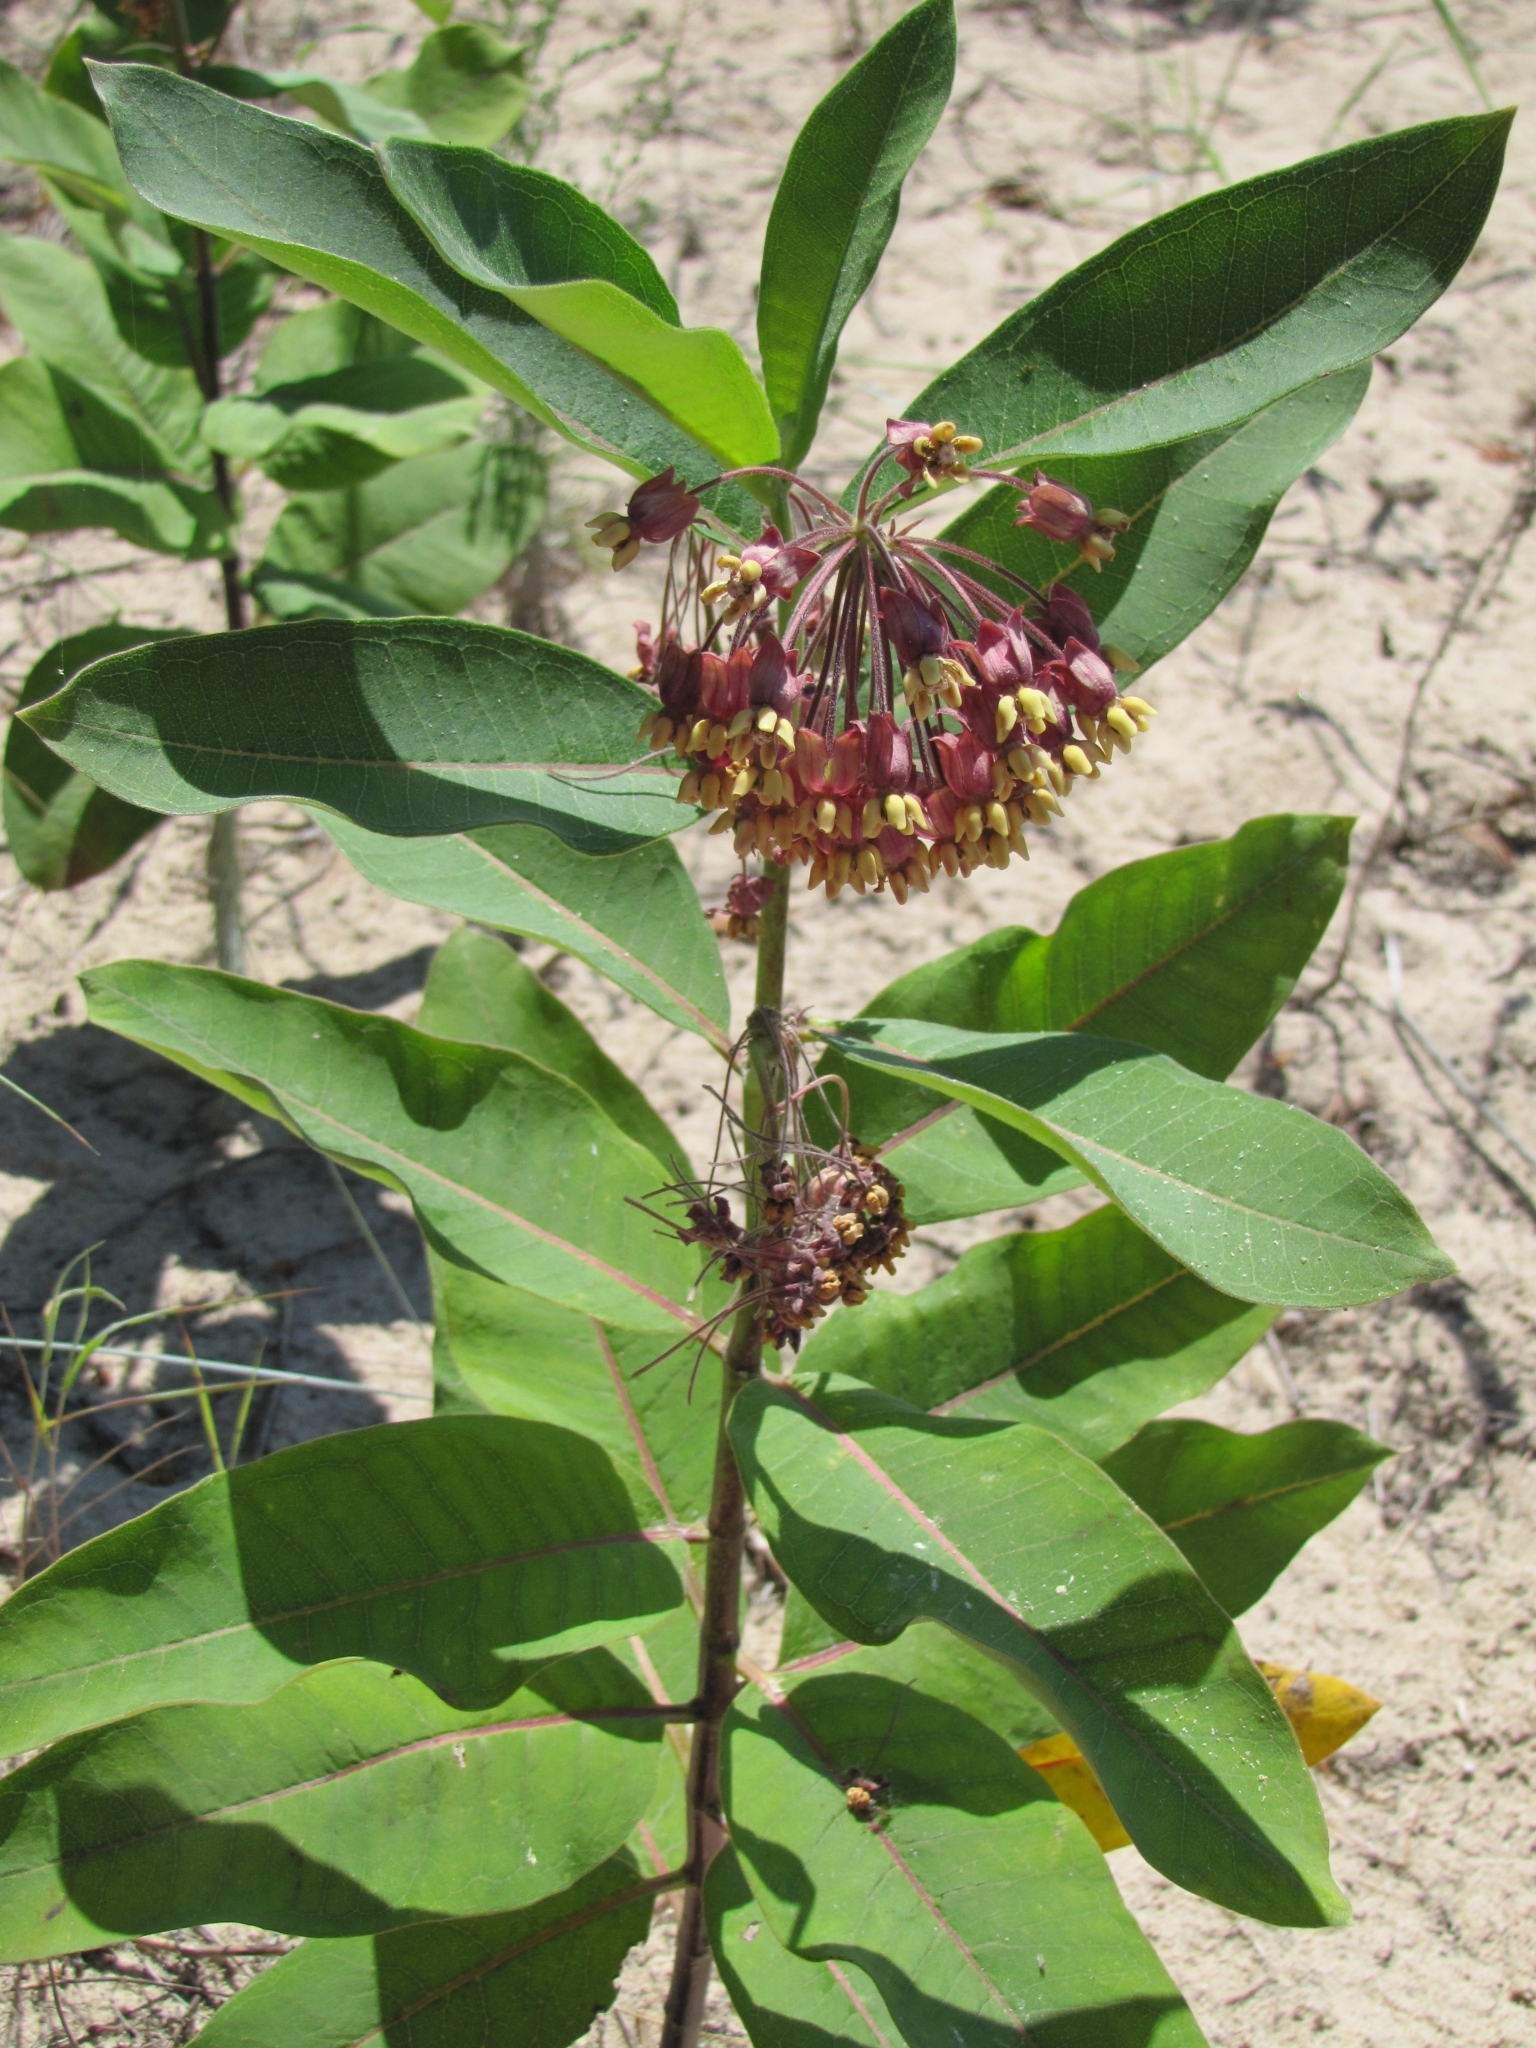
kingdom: Plantae
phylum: Tracheophyta
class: Magnoliopsida
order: Gentianales
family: Apocynaceae
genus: Asclepias
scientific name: Asclepias syriaca
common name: Common milkweed
